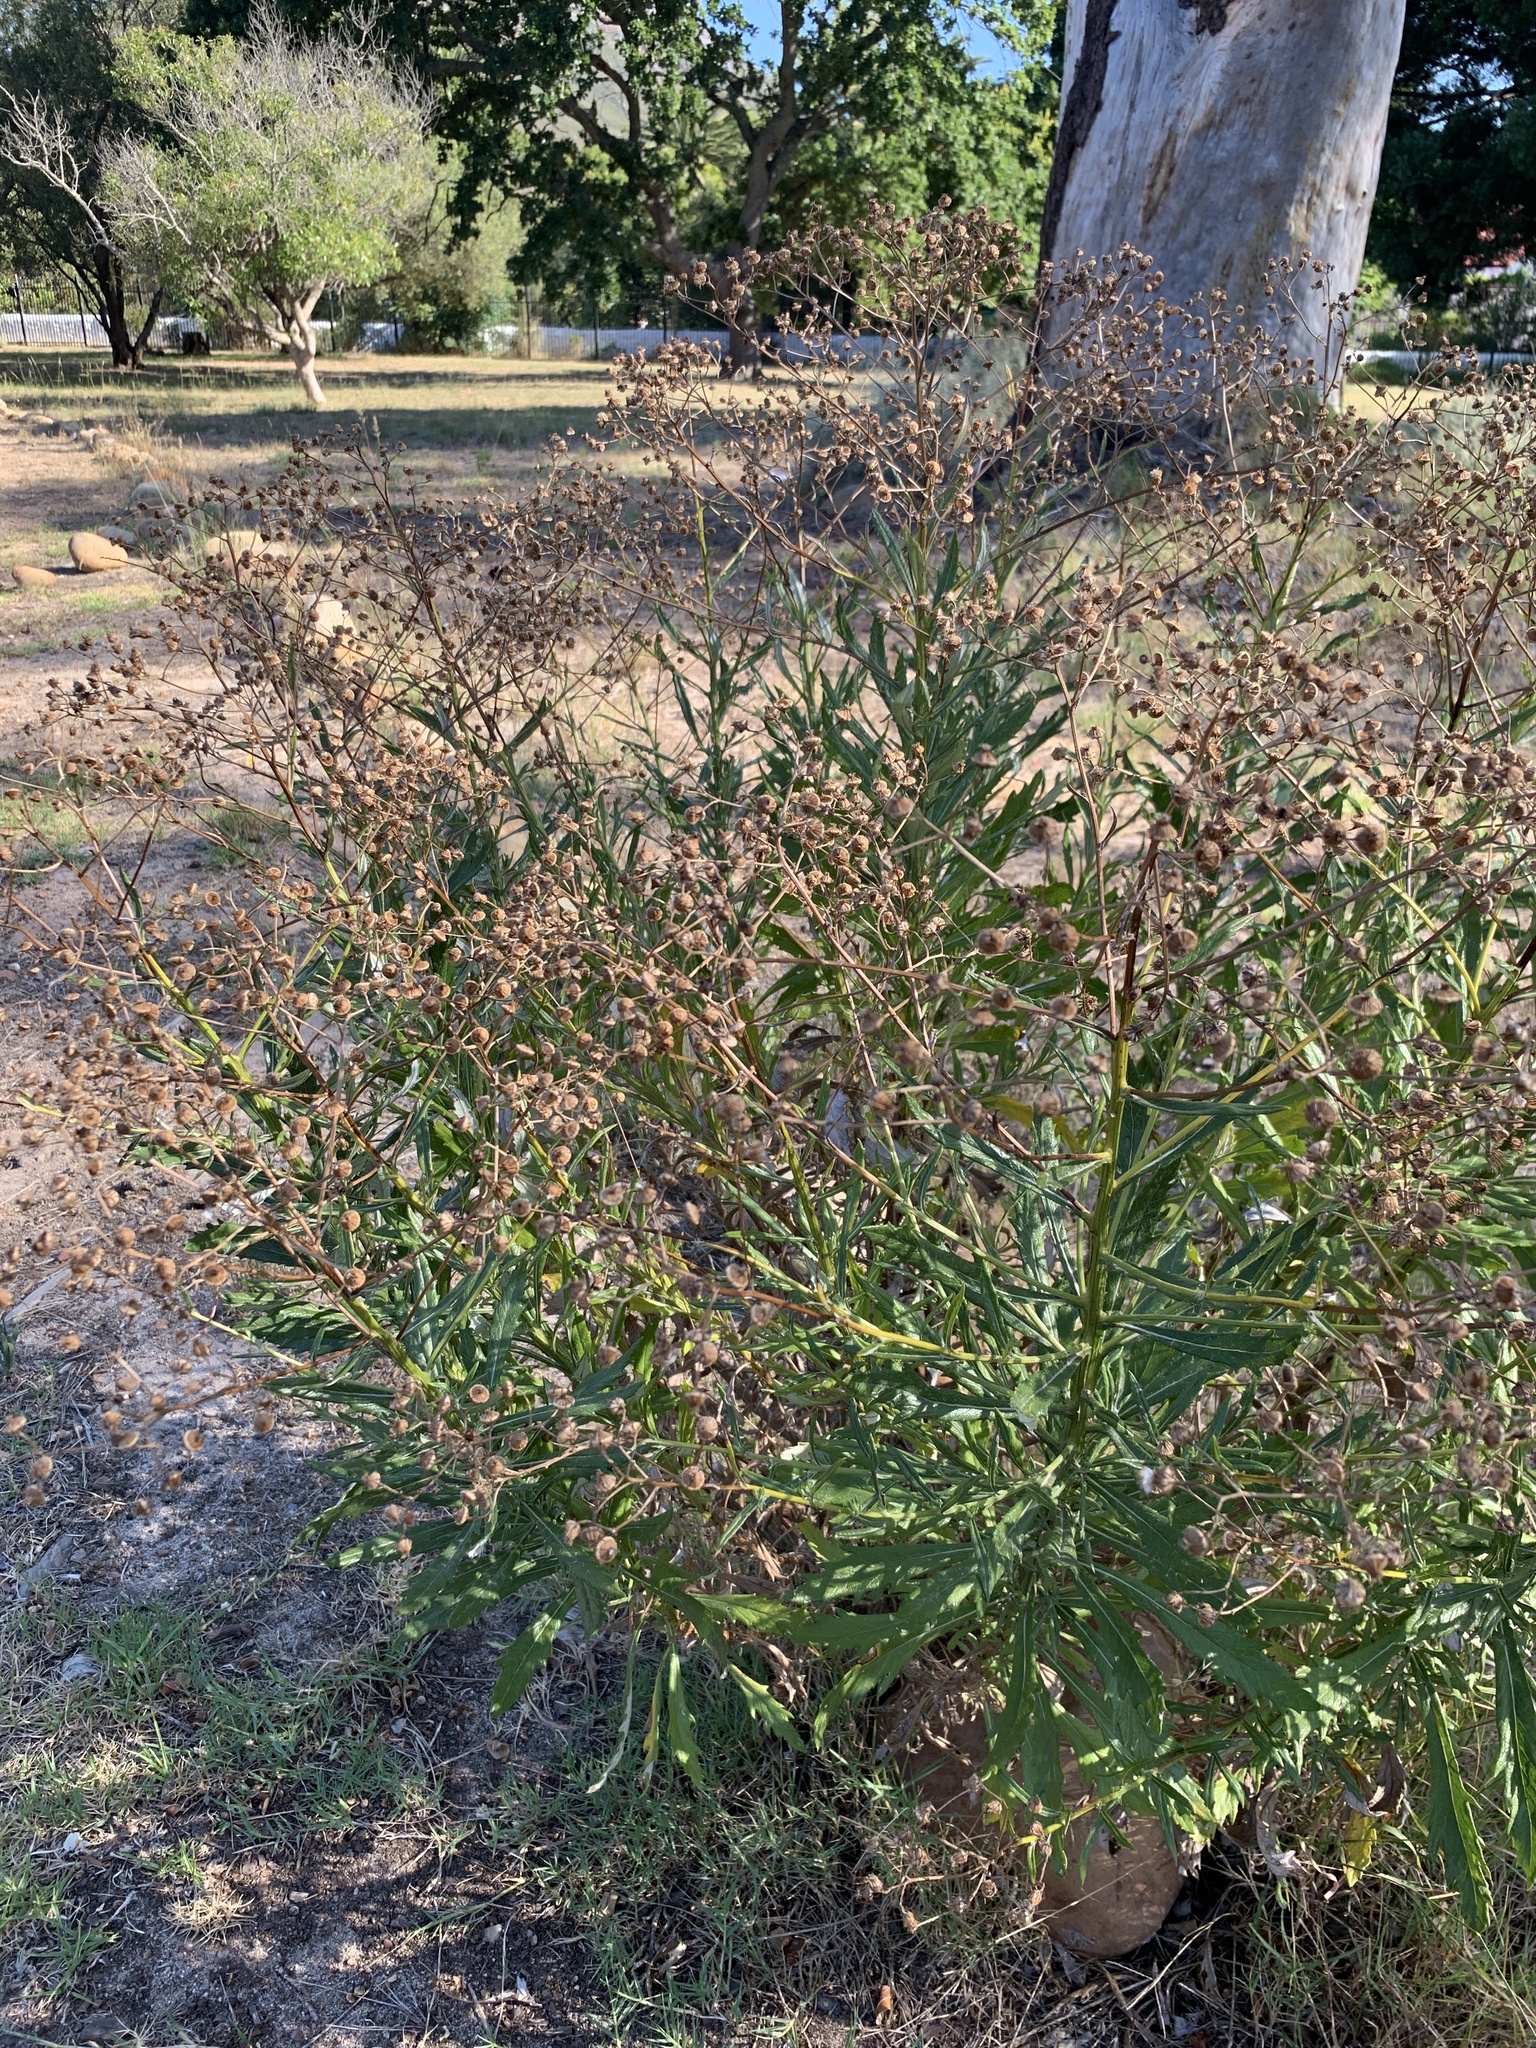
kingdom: Plantae
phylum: Tracheophyta
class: Magnoliopsida
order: Asterales
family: Asteraceae
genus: Senecio
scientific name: Senecio pterophorus
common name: Shoddy ragwort
